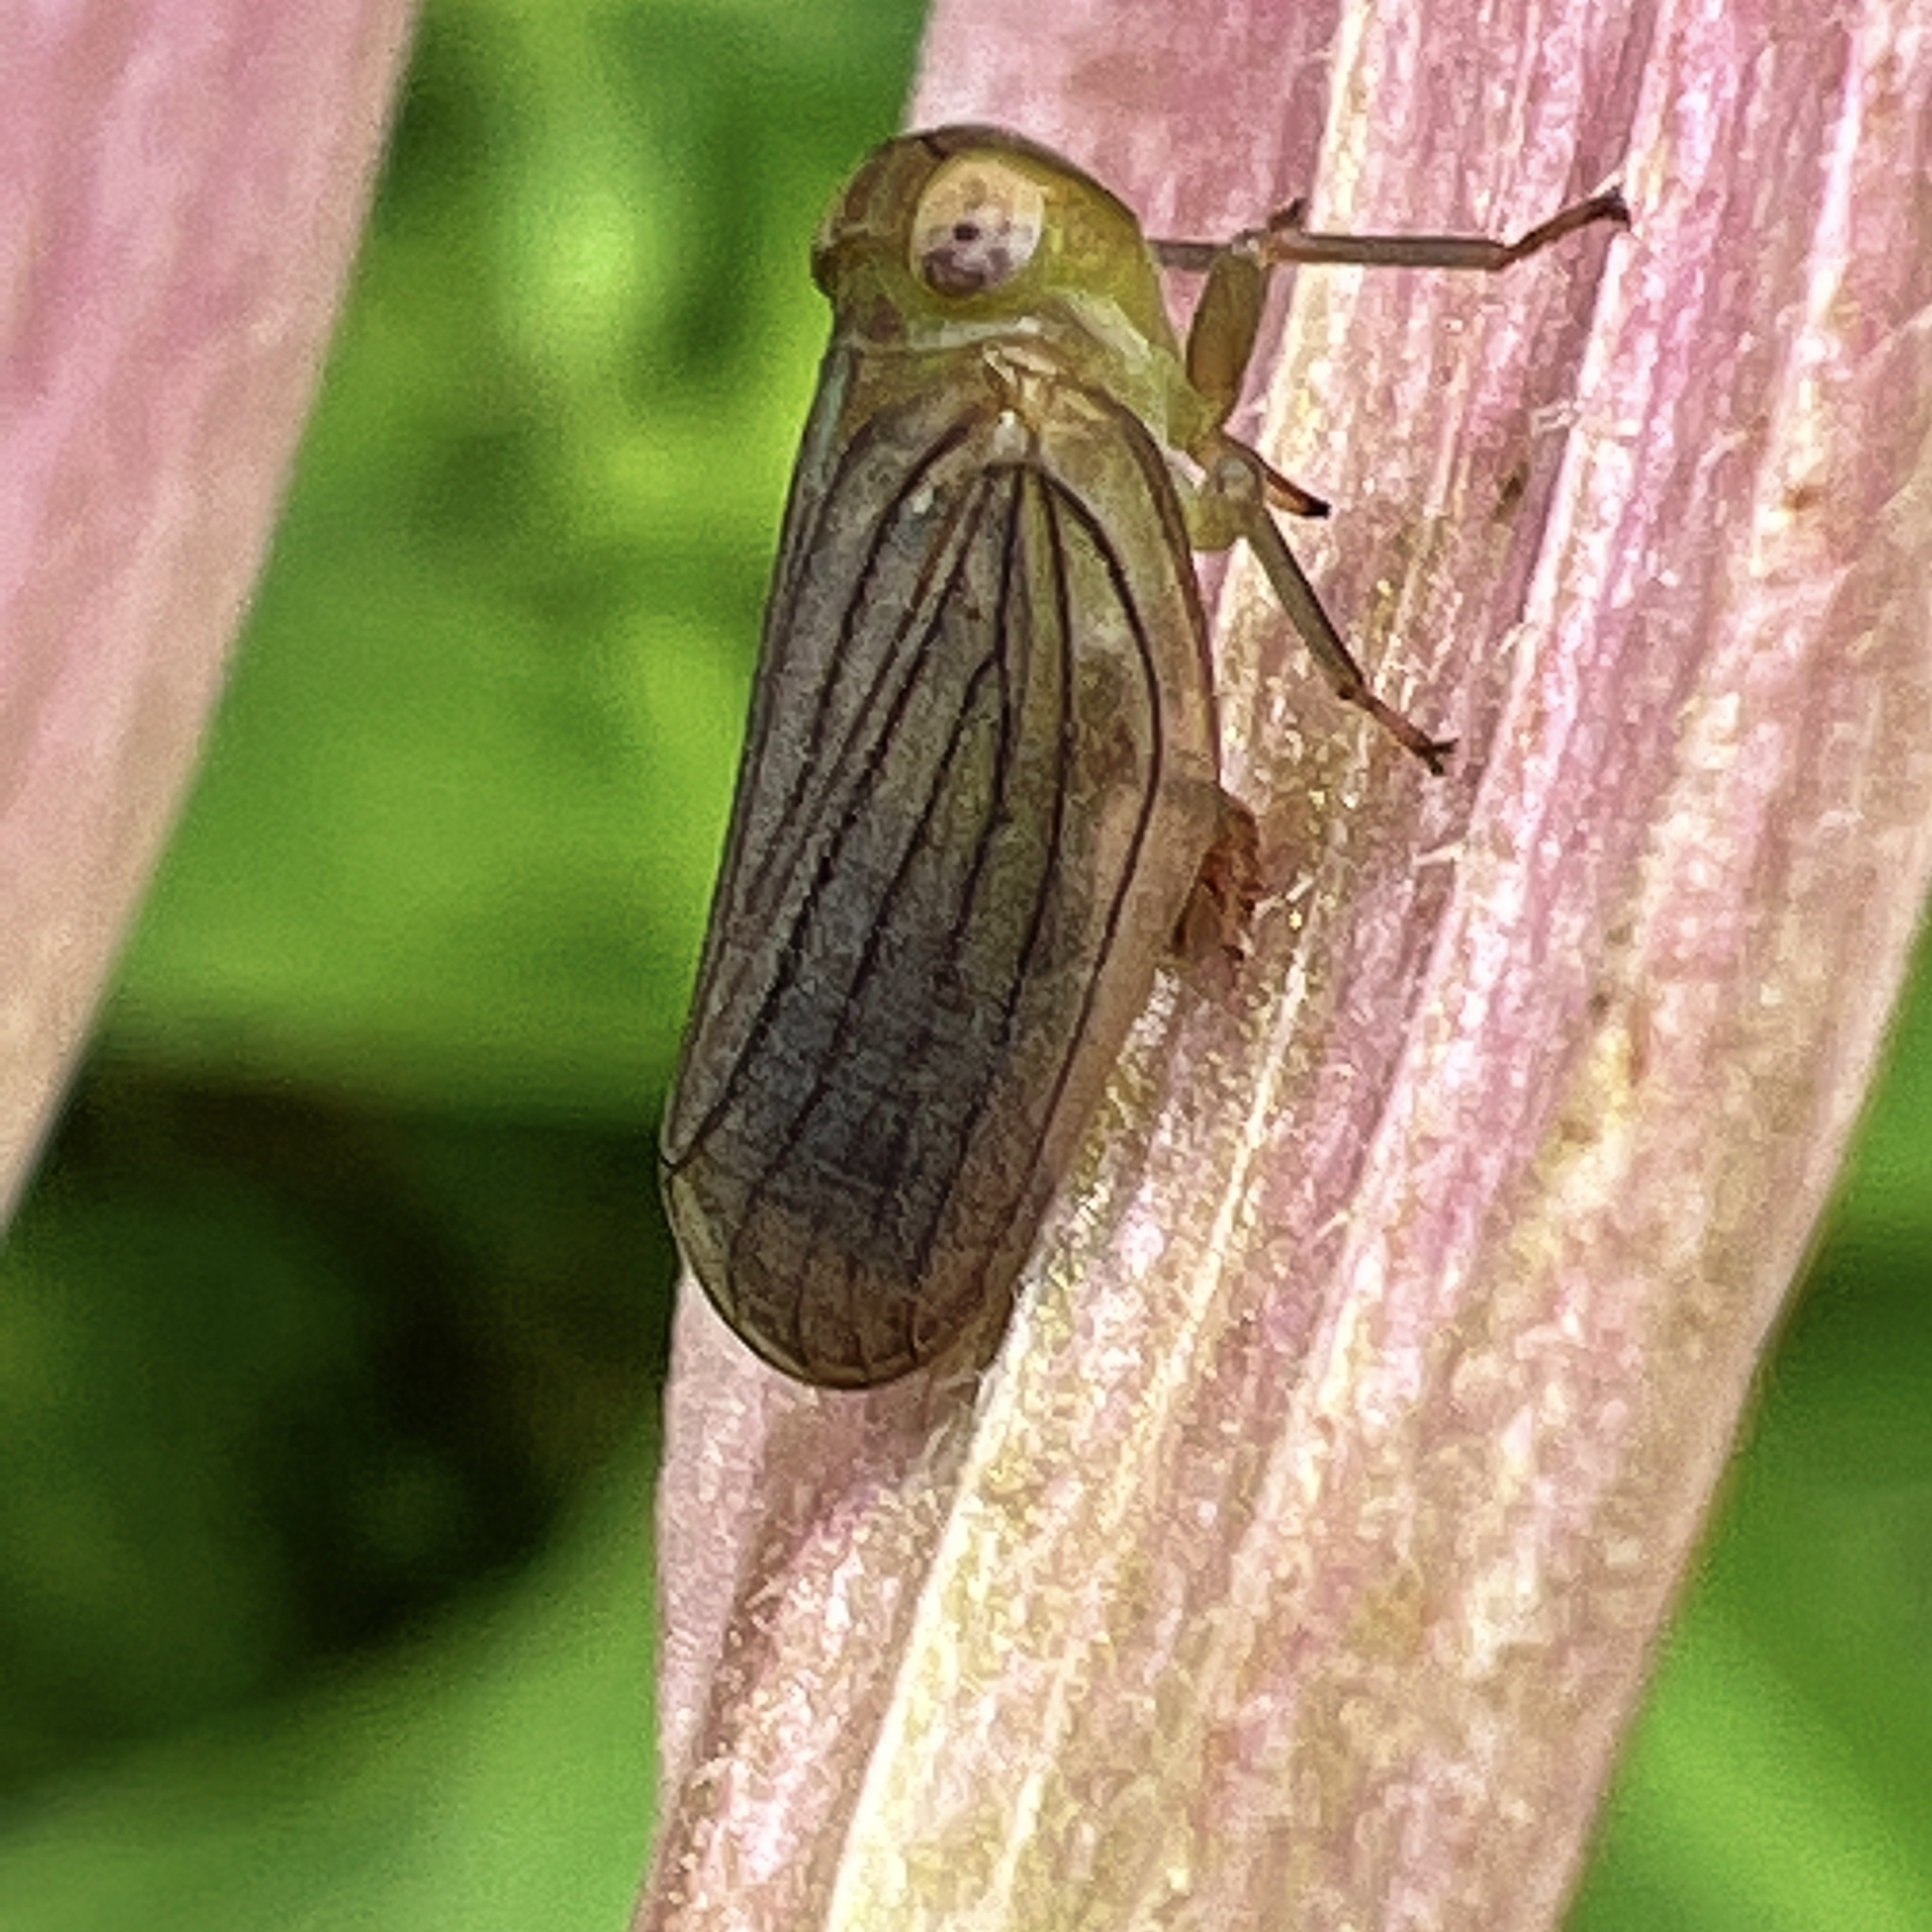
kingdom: Animalia
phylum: Arthropoda
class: Insecta
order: Hemiptera
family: Issidae
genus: Aplos
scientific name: Aplos simplex
